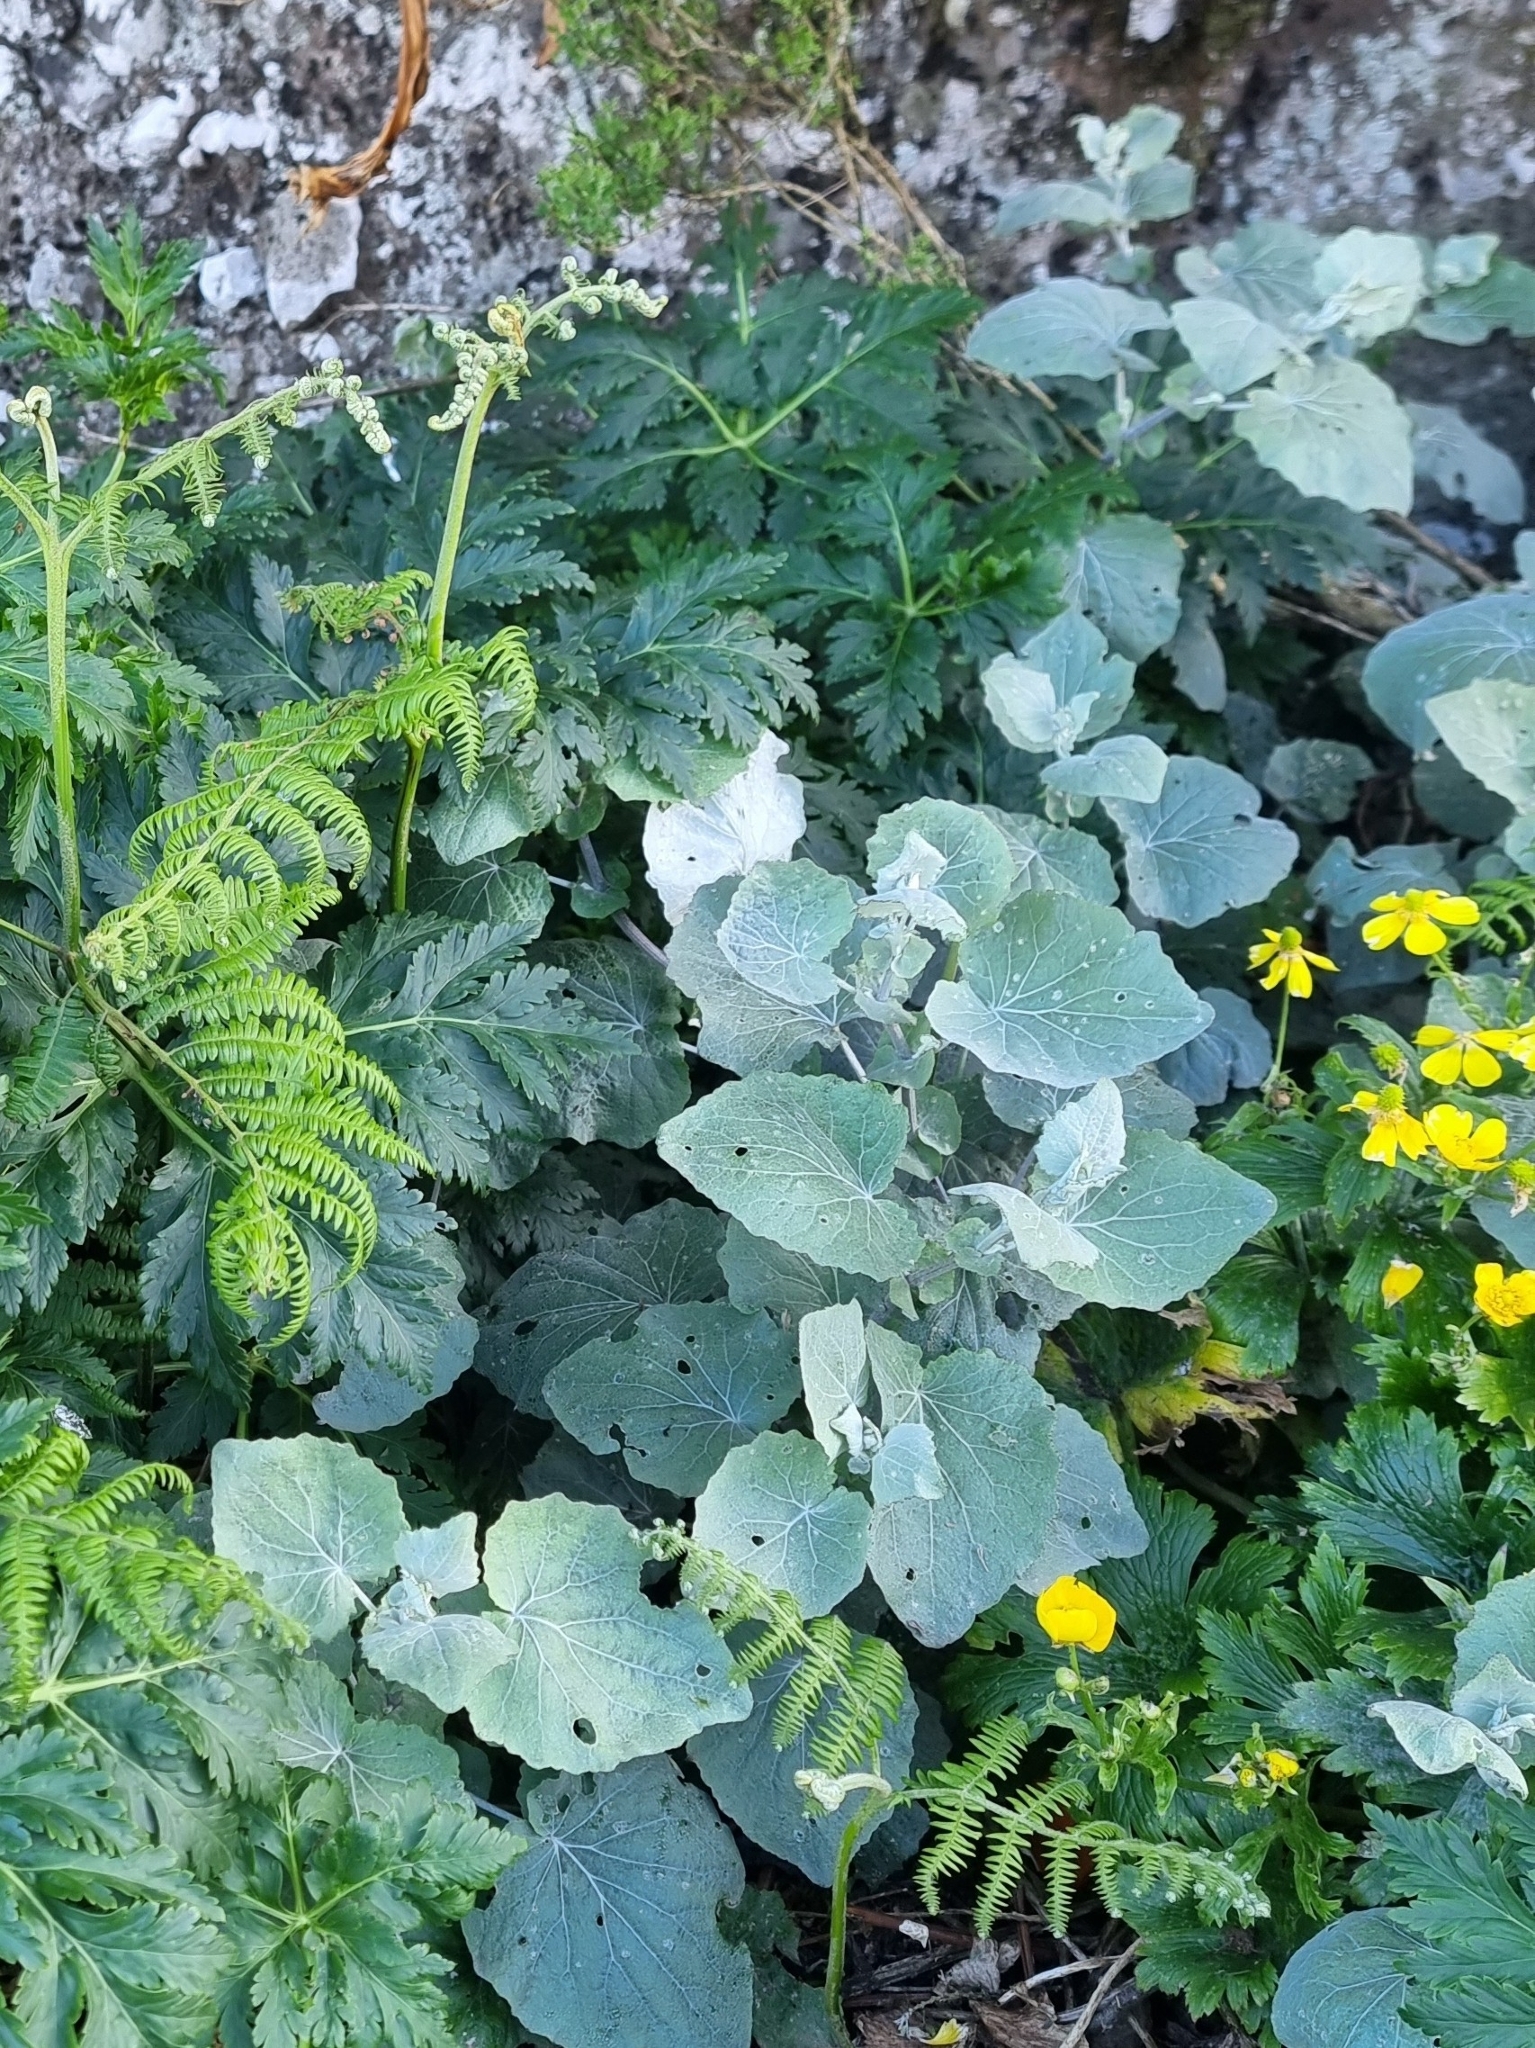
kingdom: Plantae
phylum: Tracheophyta
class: Magnoliopsida
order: Asterales
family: Asteraceae
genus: Pericallis
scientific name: Pericallis aurita
